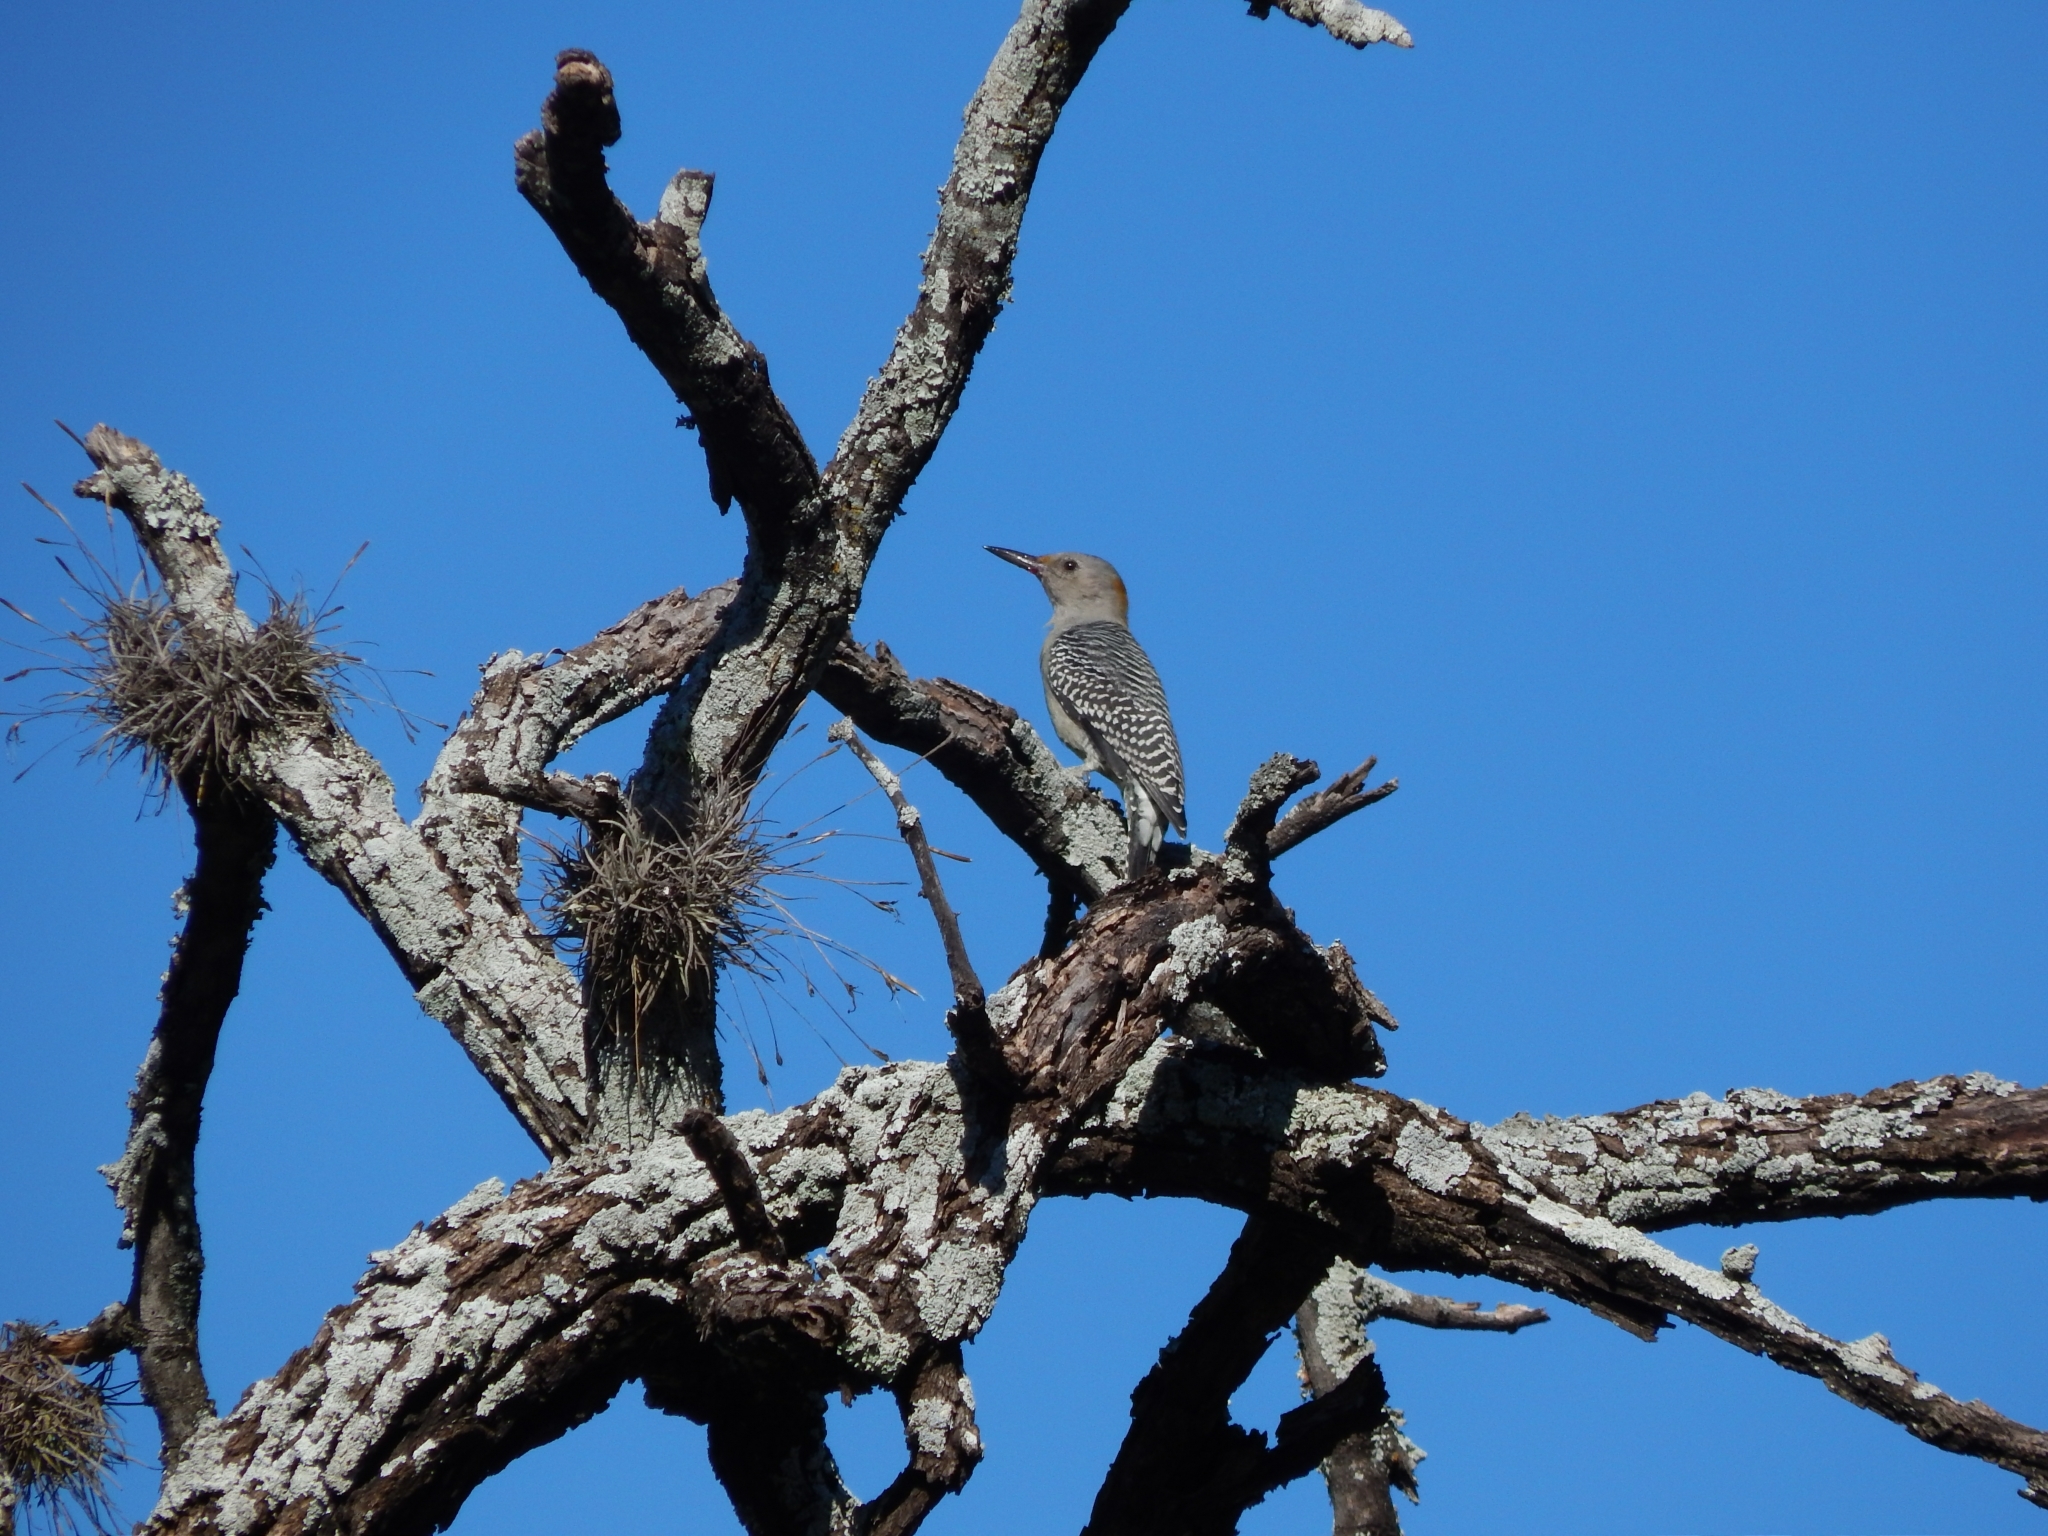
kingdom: Animalia
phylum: Chordata
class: Aves
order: Piciformes
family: Picidae
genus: Melanerpes
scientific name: Melanerpes aurifrons
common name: Golden-fronted woodpecker
